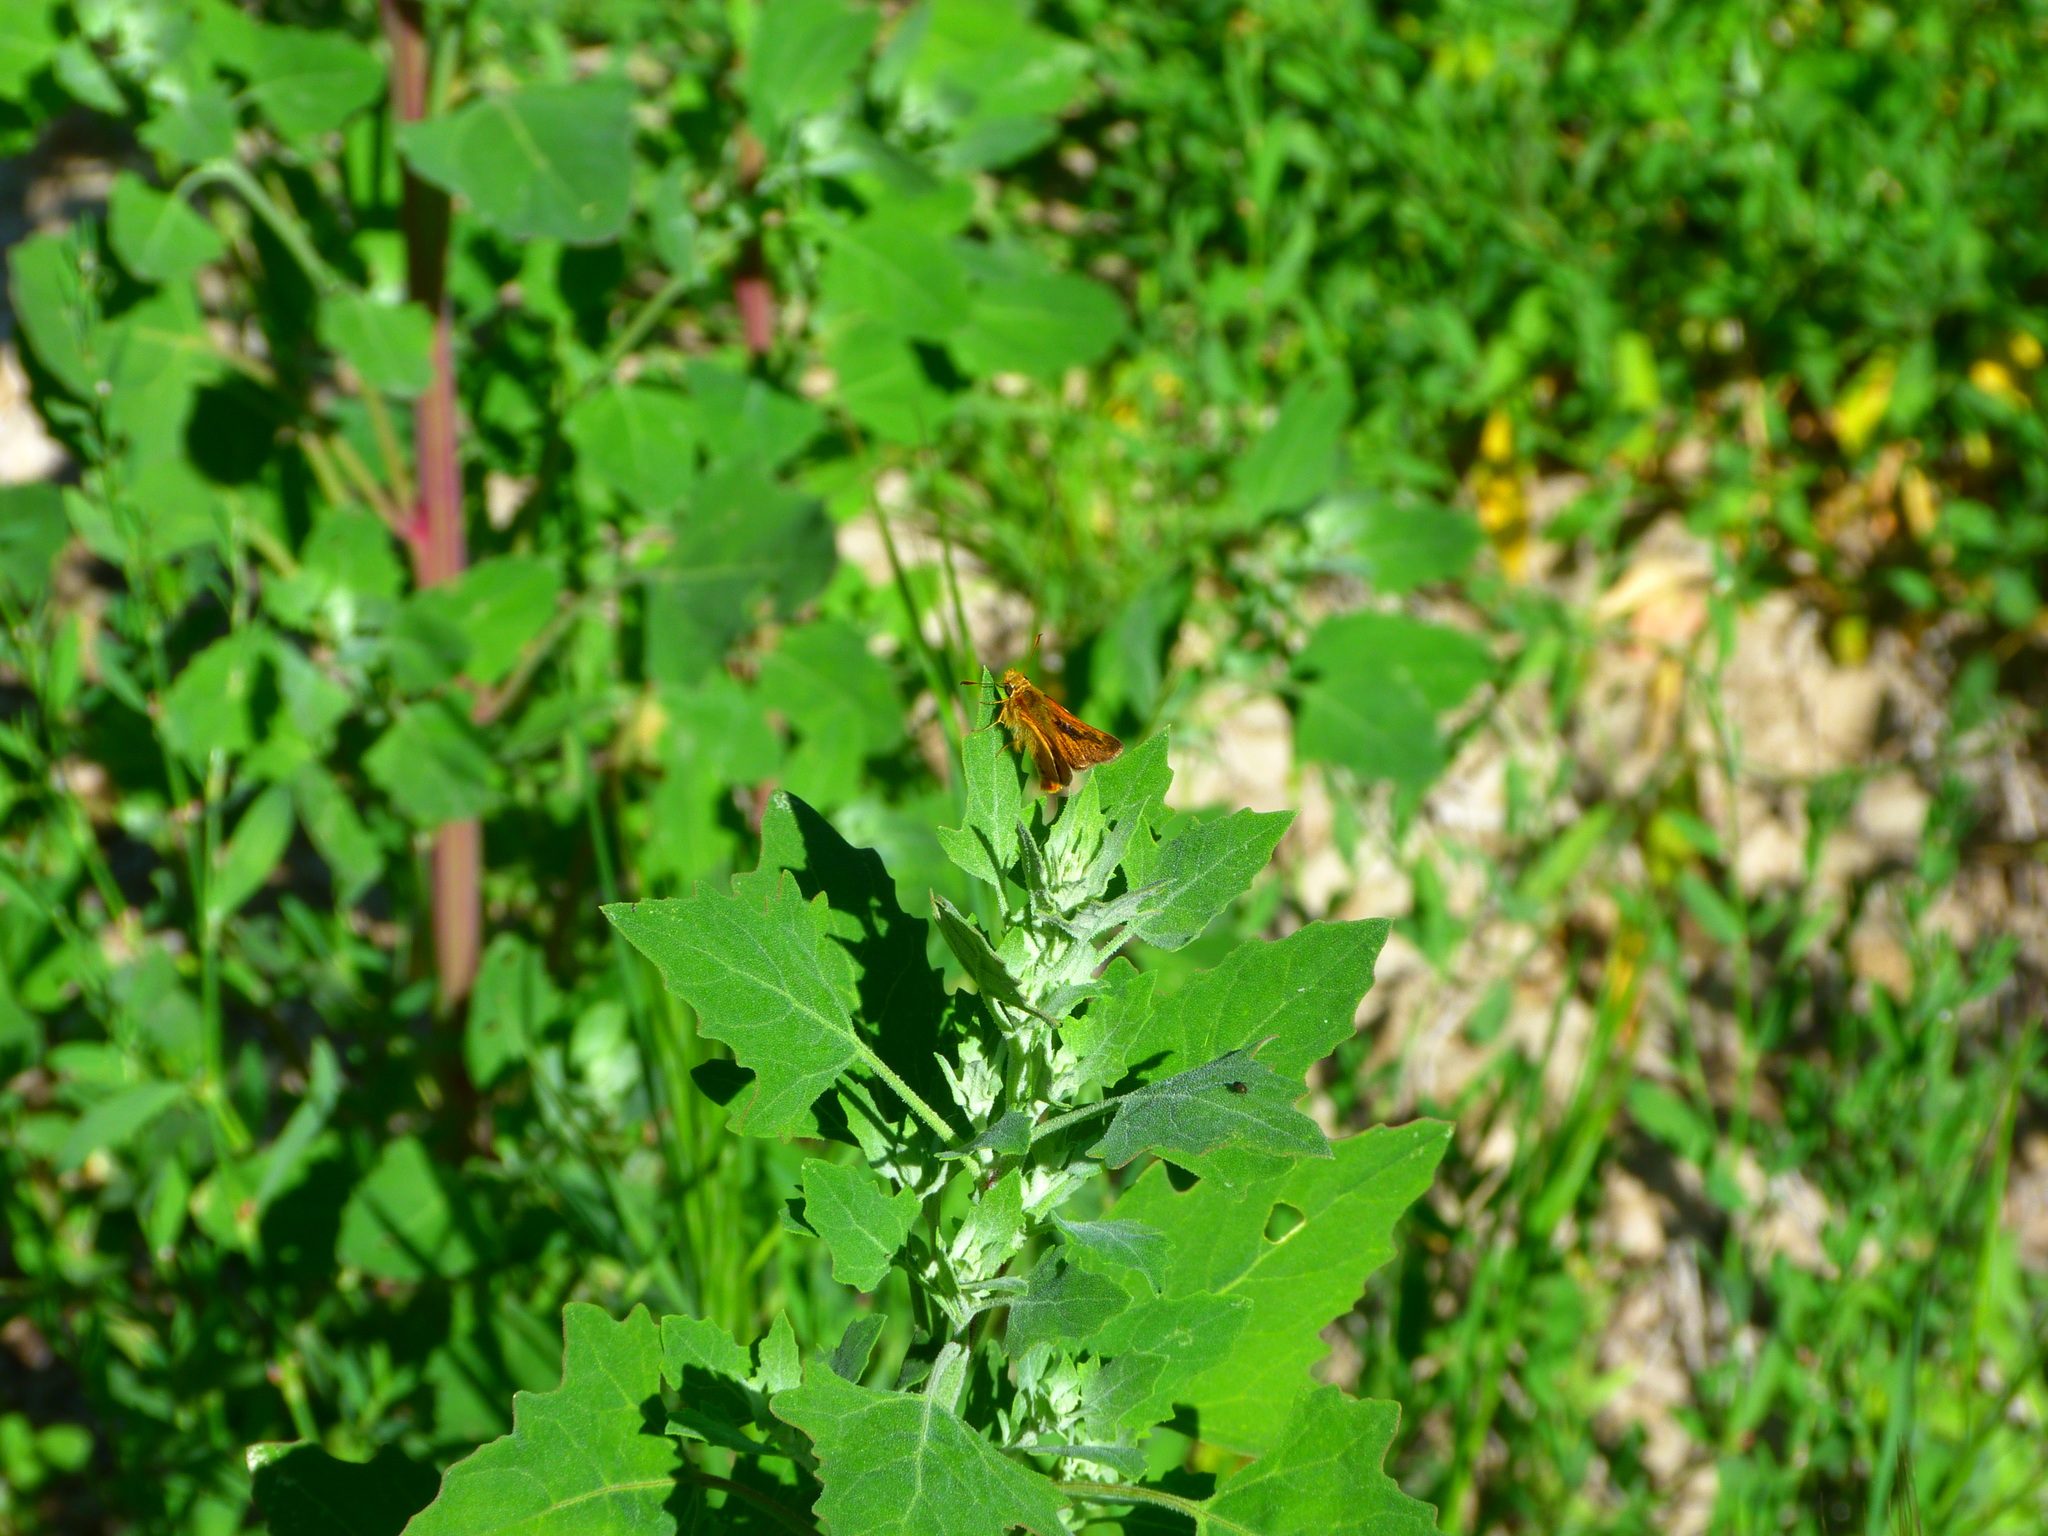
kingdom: Animalia
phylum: Arthropoda
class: Insecta
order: Lepidoptera
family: Hesperiidae
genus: Ochlodes
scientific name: Ochlodes agricola
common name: Rural skipper
